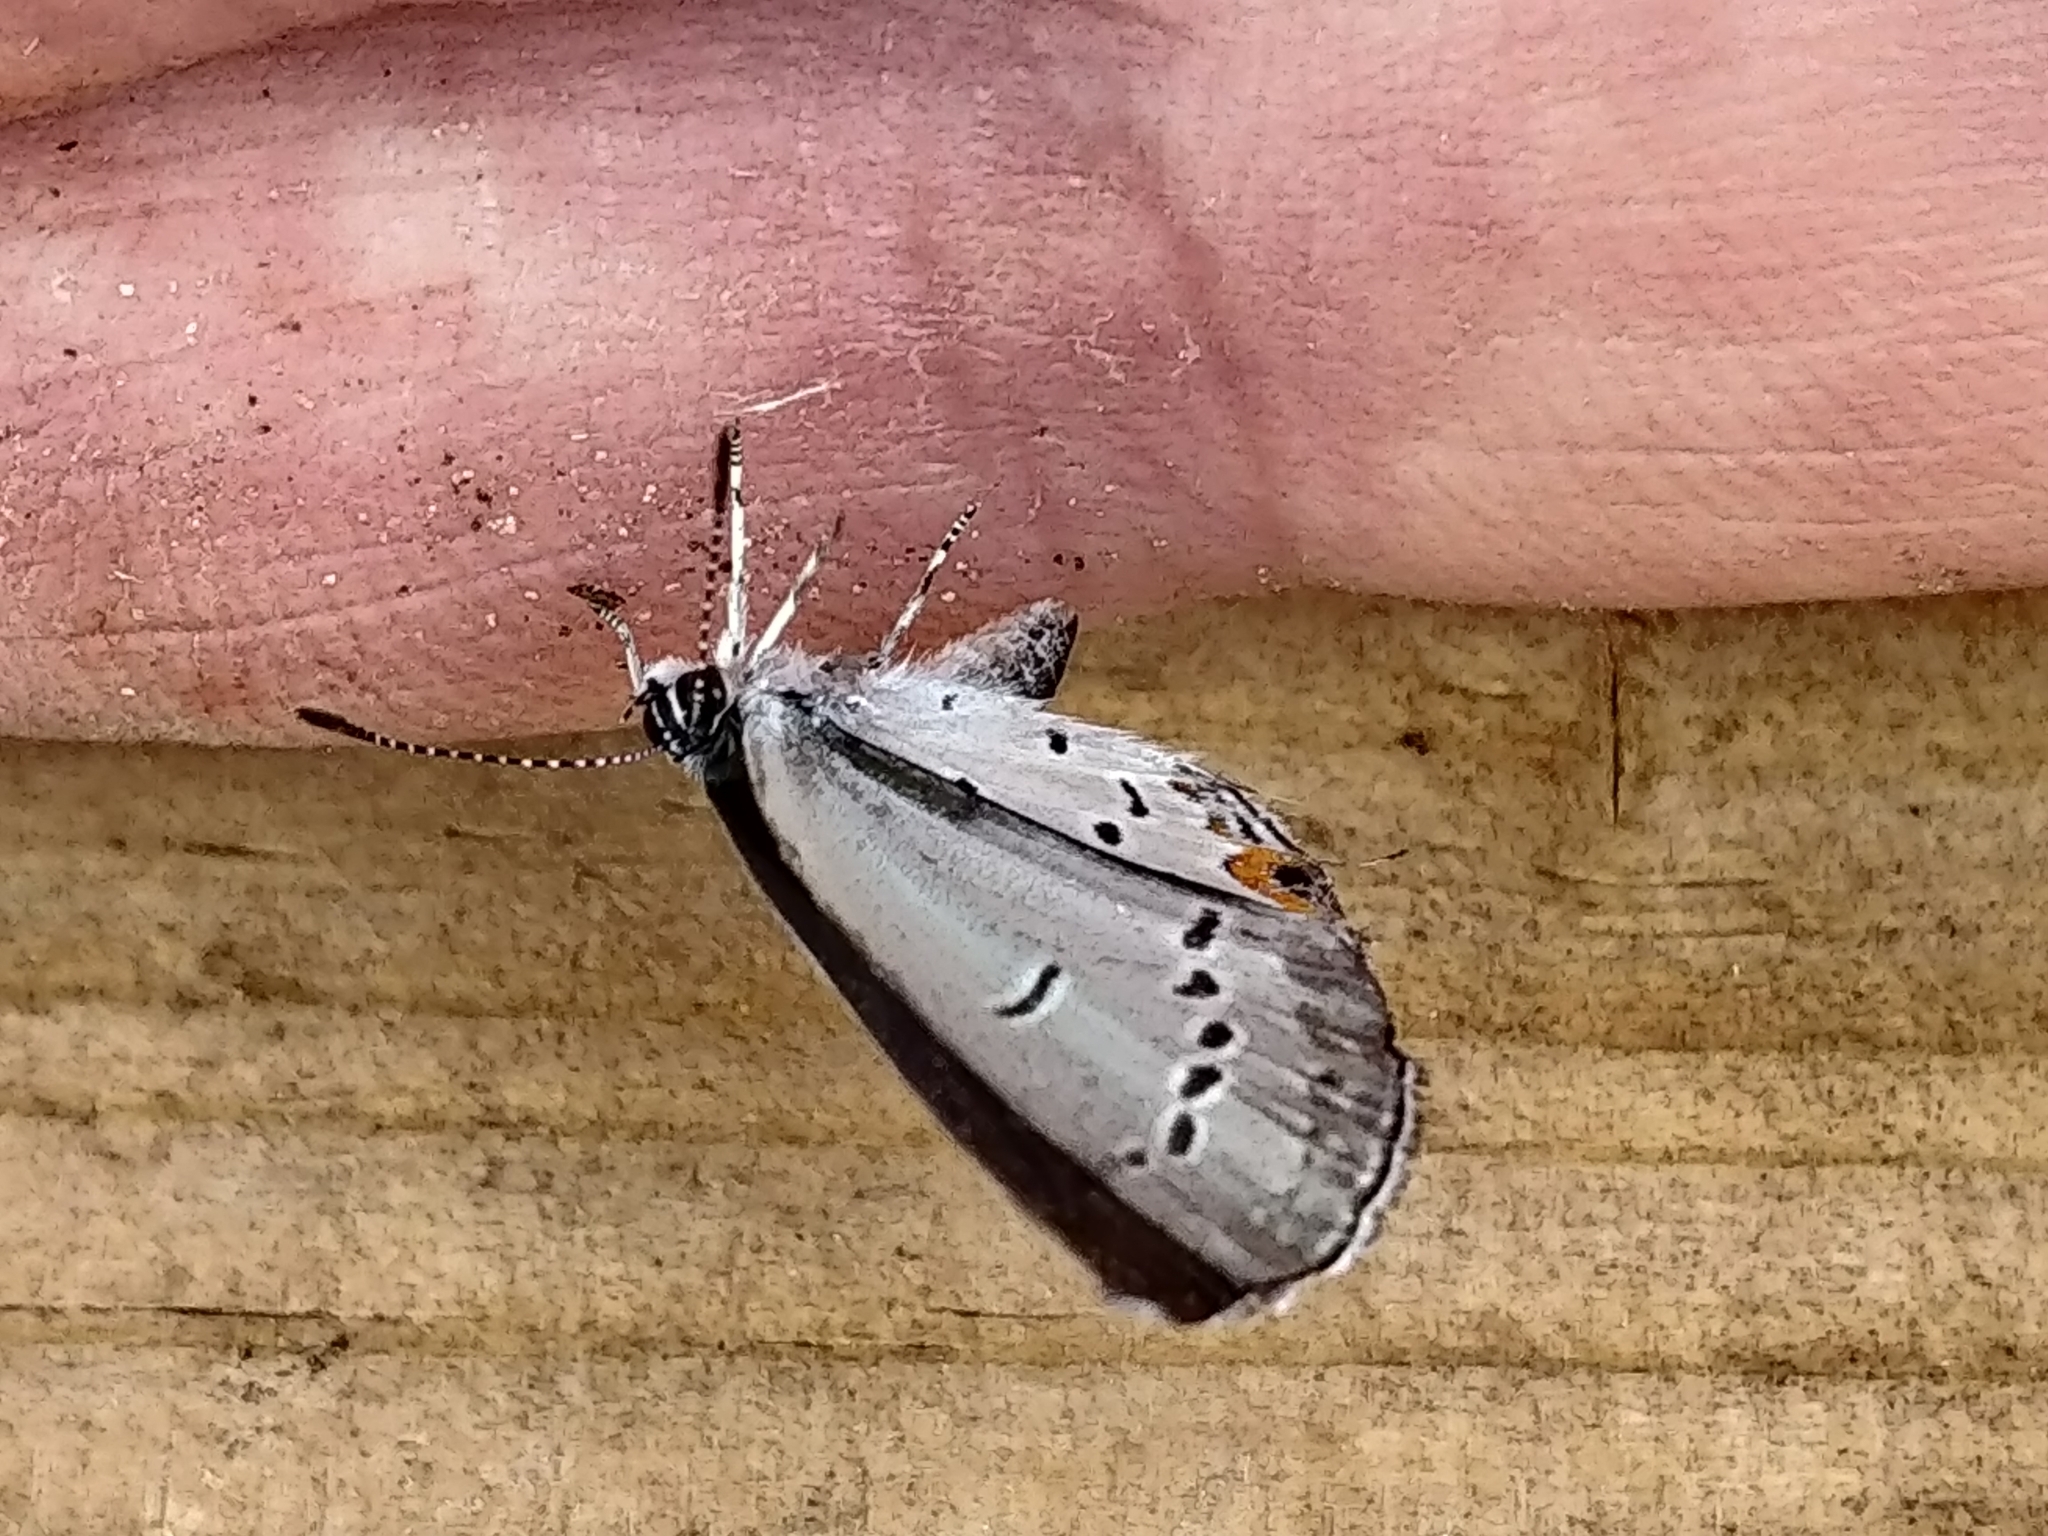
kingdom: Animalia
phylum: Arthropoda
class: Insecta
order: Lepidoptera
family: Lycaenidae
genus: Elkalyce
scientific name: Elkalyce comyntas
